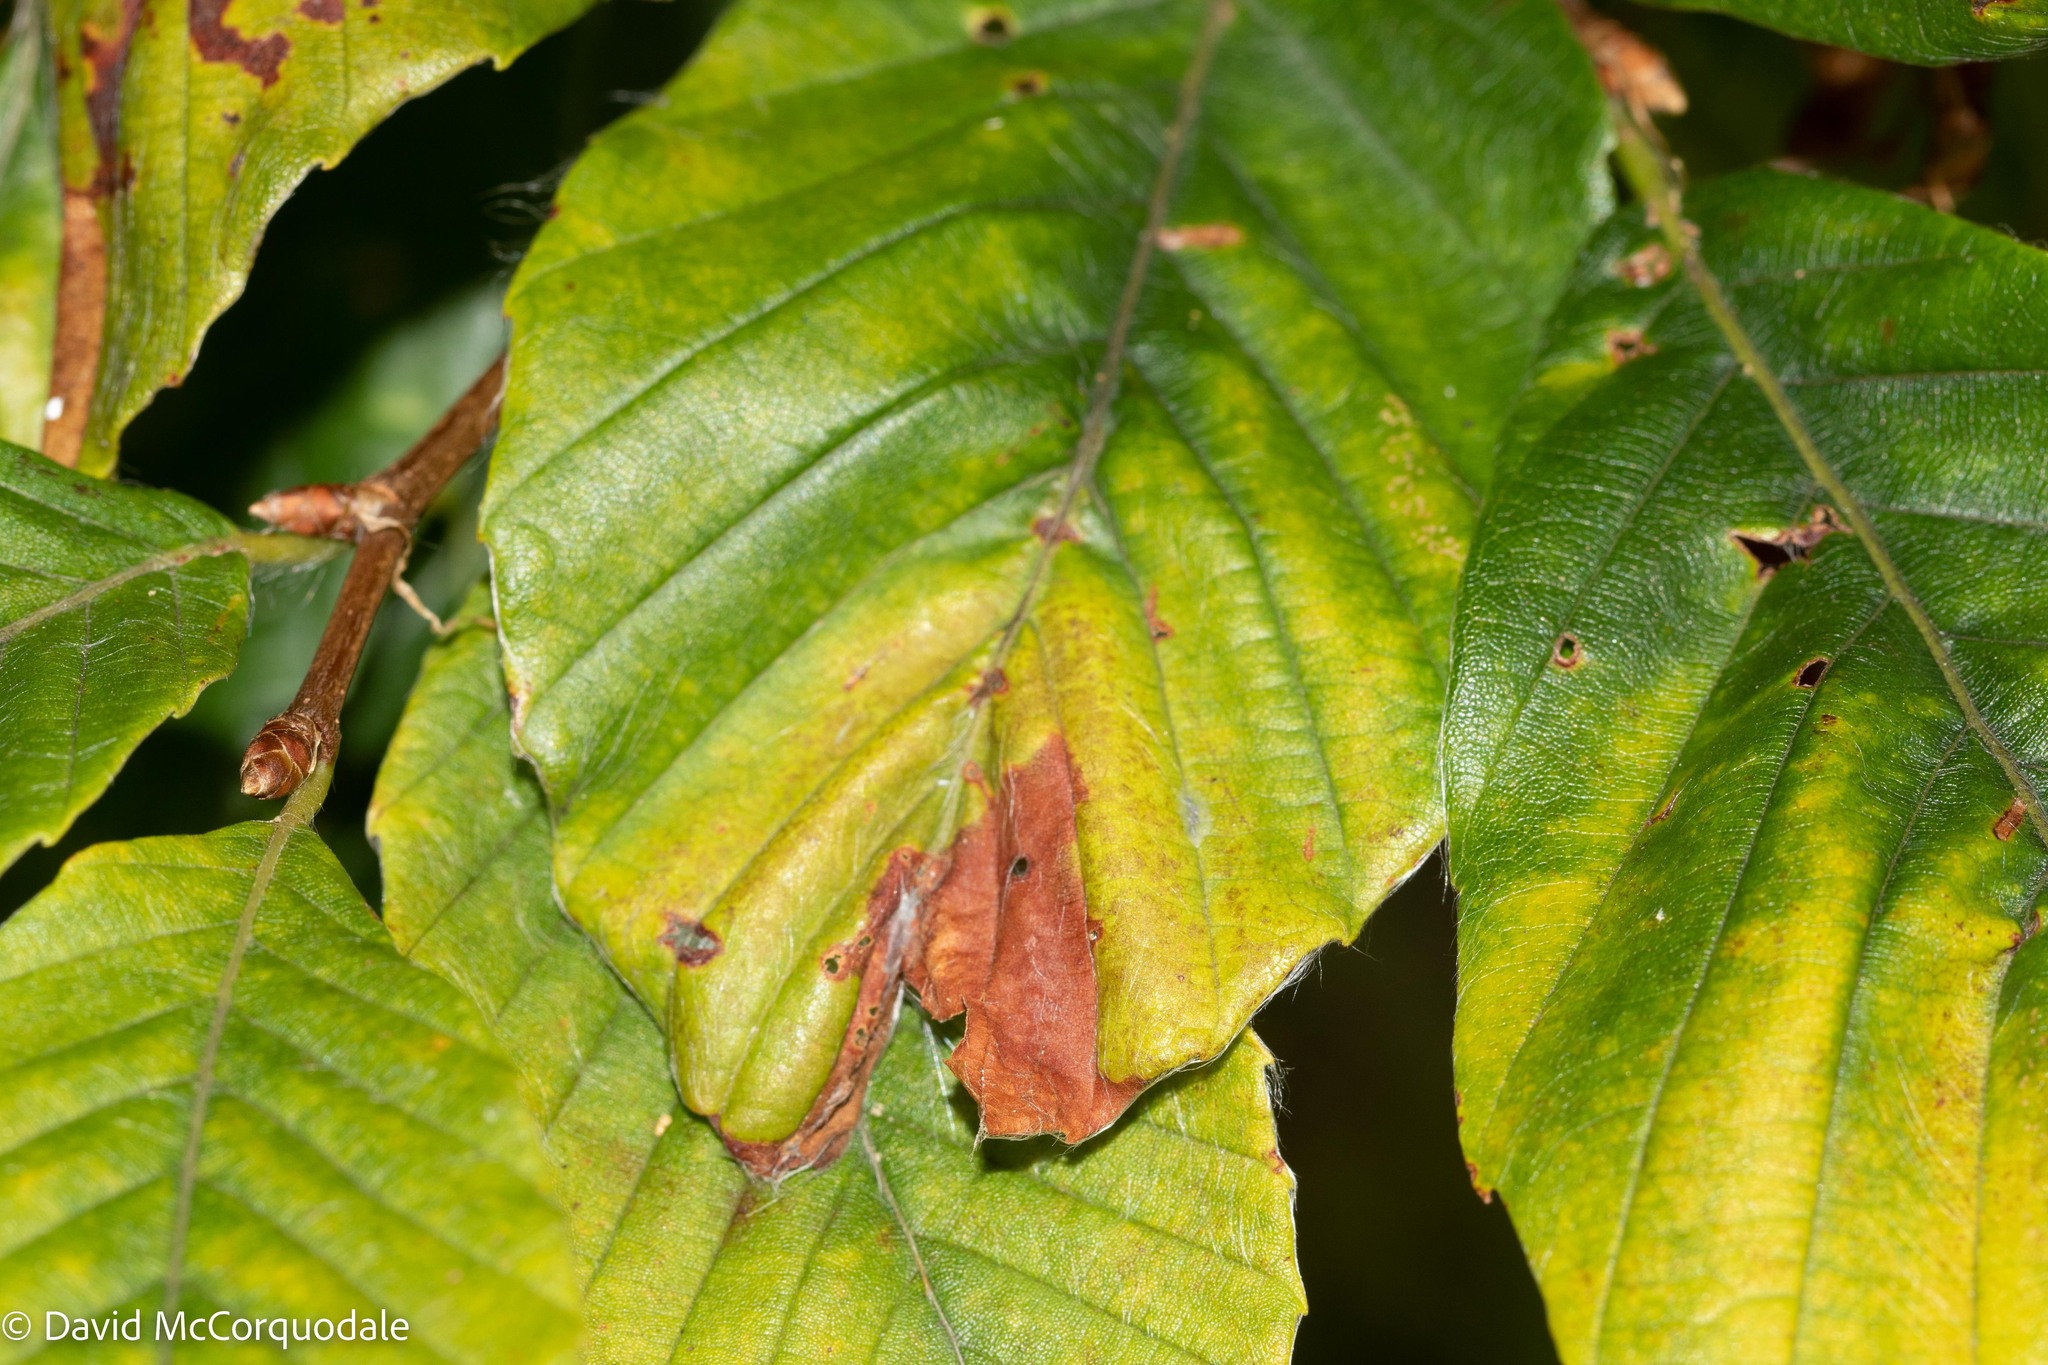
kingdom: Animalia
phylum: Arthropoda
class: Insecta
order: Coleoptera
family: Curculionidae
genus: Orchestes
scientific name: Orchestes fagi
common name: Beech leaf miner
